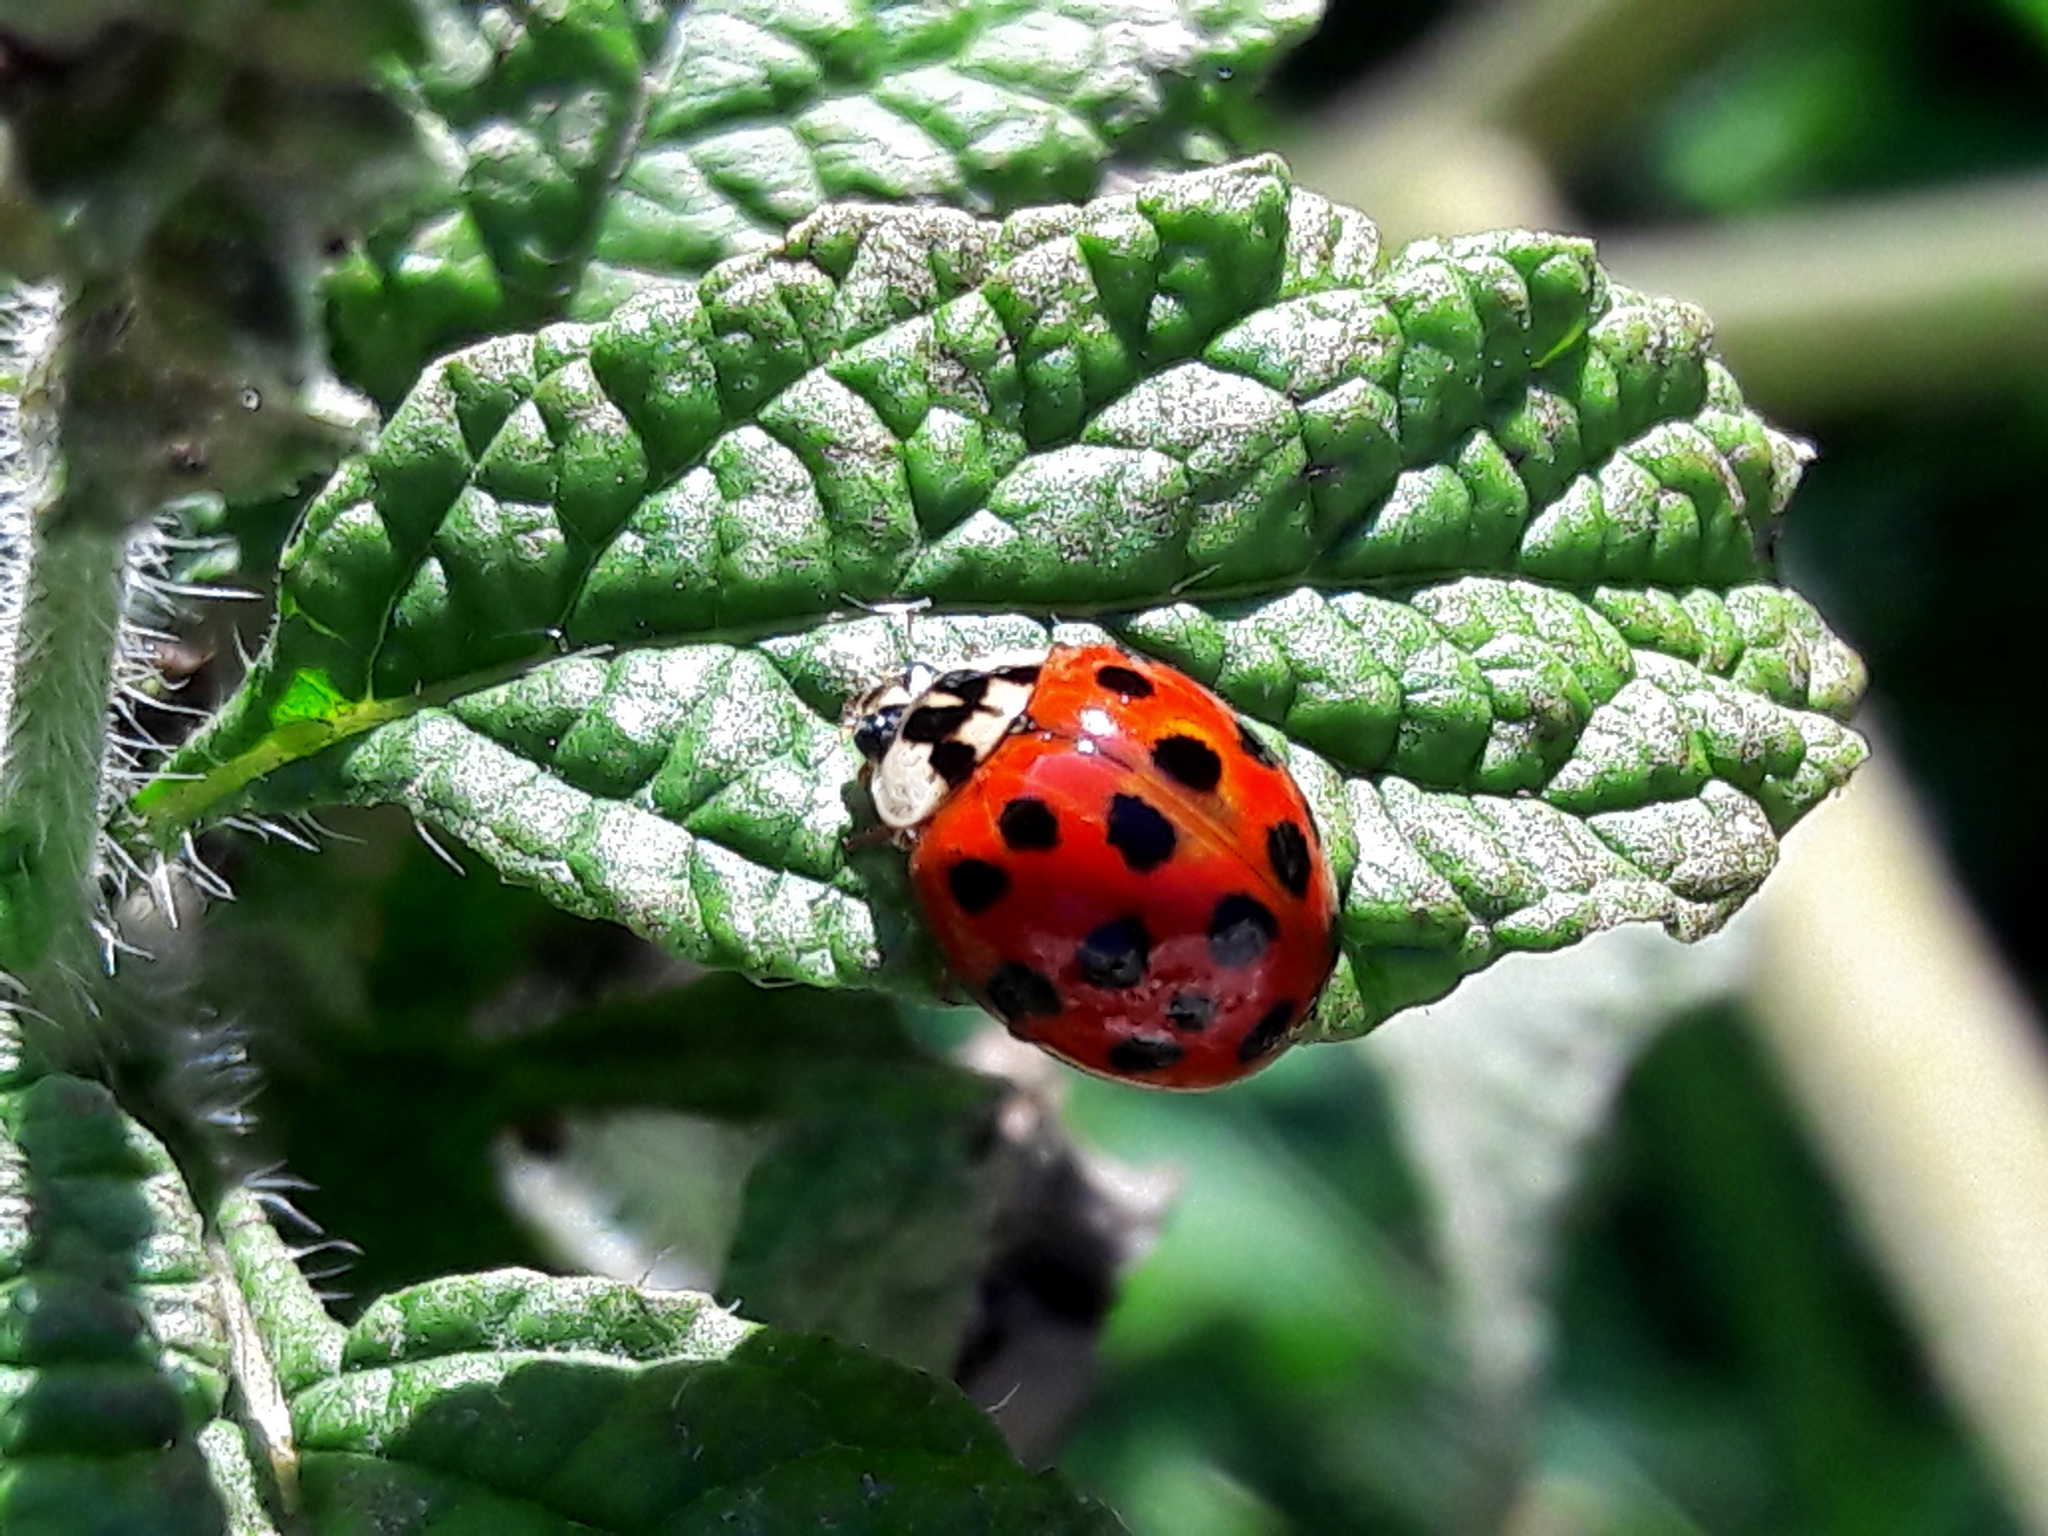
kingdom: Animalia
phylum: Arthropoda
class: Insecta
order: Coleoptera
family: Coccinellidae
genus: Harmonia
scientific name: Harmonia axyridis
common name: Harlequin ladybird
